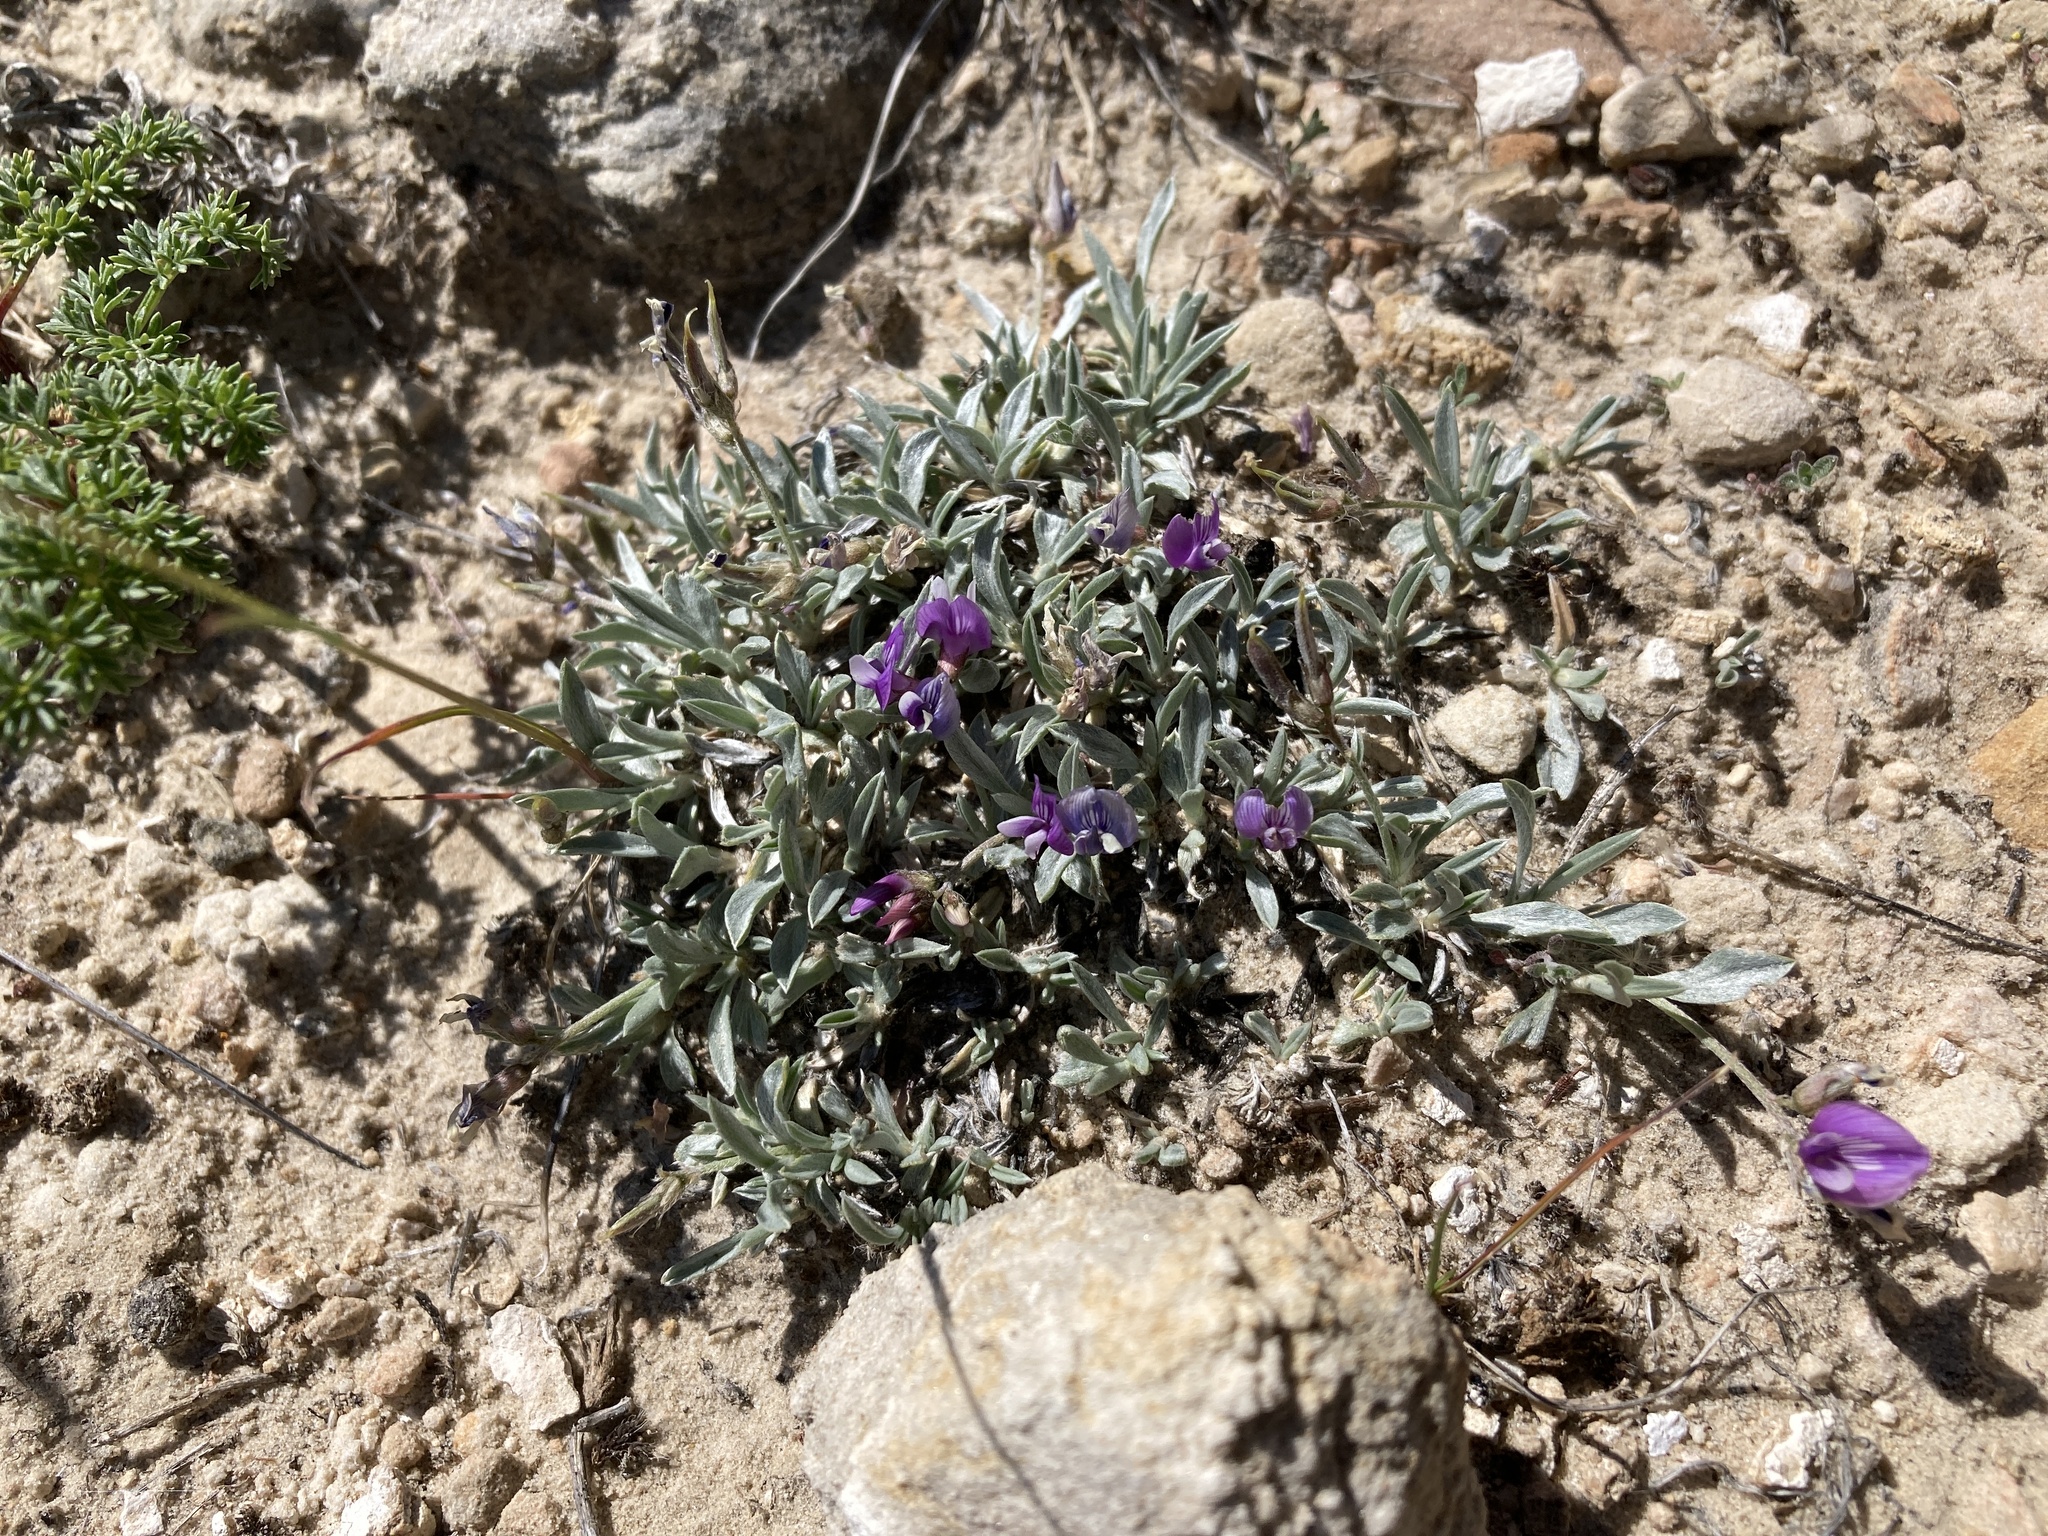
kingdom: Plantae
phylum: Tracheophyta
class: Magnoliopsida
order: Fabales
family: Fabaceae
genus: Astragalus
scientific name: Astragalus spatulatus
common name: Draba milk-vetch
